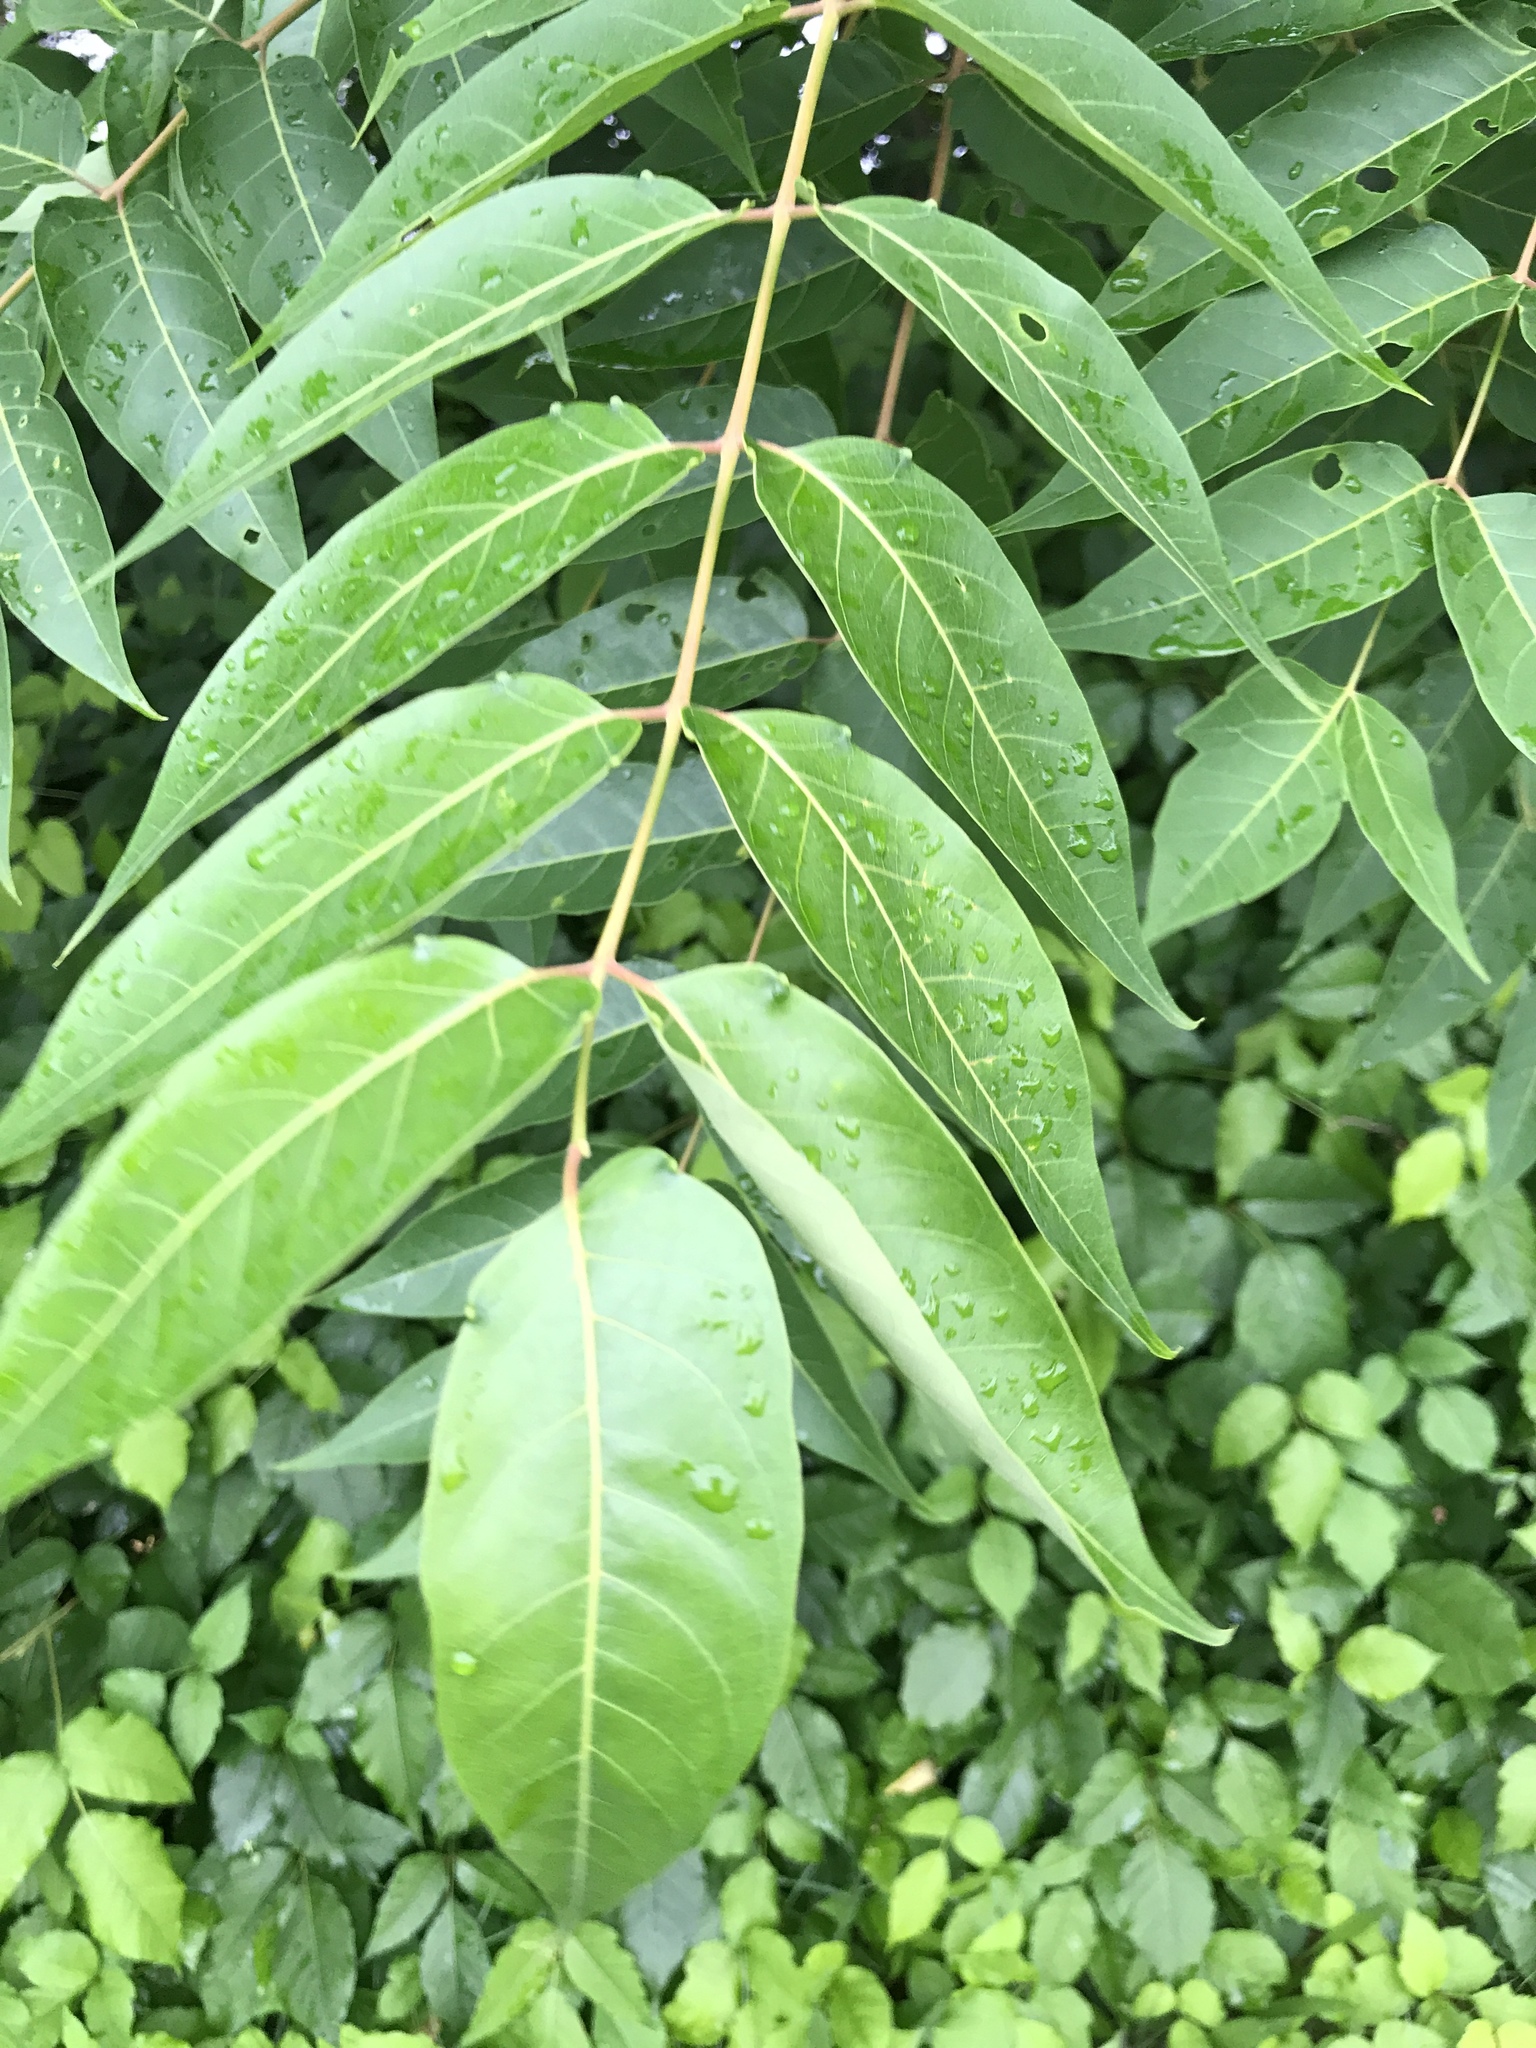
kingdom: Plantae
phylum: Tracheophyta
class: Magnoliopsida
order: Sapindales
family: Simaroubaceae
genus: Ailanthus
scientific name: Ailanthus altissima
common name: Tree-of-heaven
